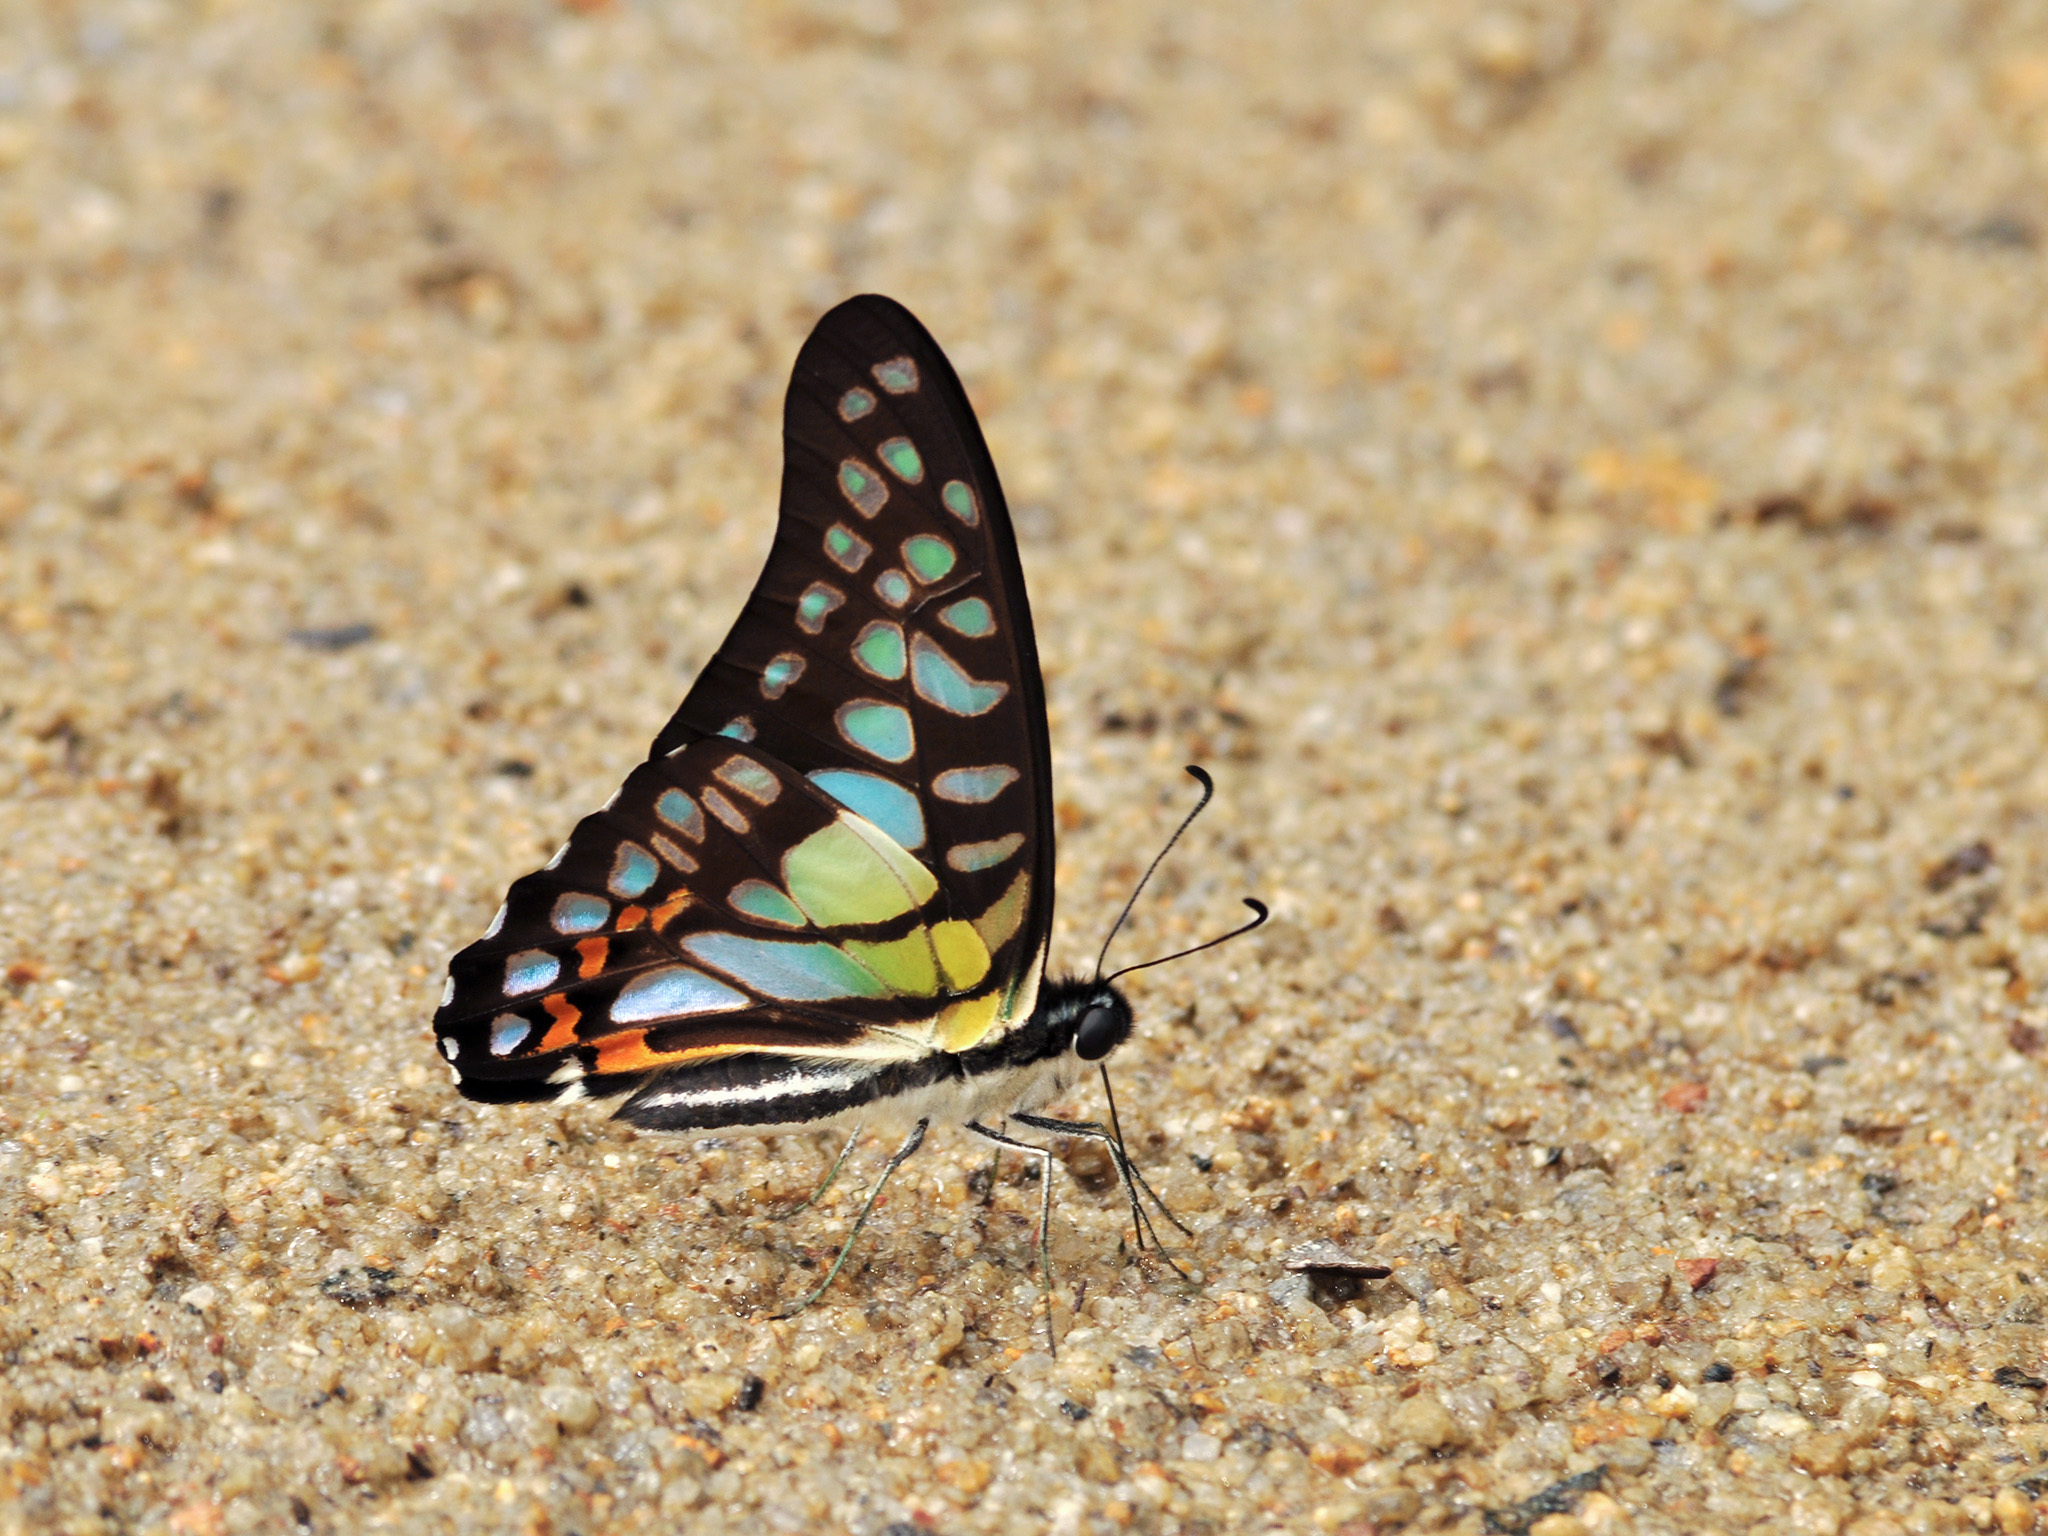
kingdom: Animalia
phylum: Arthropoda
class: Insecta
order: Lepidoptera
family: Papilionidae
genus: Graphium
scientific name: Graphium bathycles
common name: Veined jay
